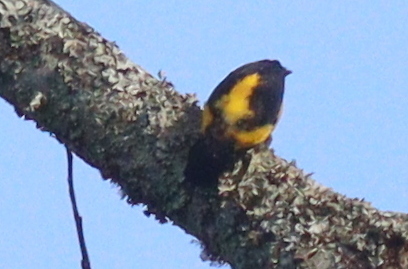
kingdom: Animalia
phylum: Chordata
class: Aves
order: Passeriformes
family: Ploceidae
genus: Ploceus
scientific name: Ploceus insignis
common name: Brown-capped weaver
